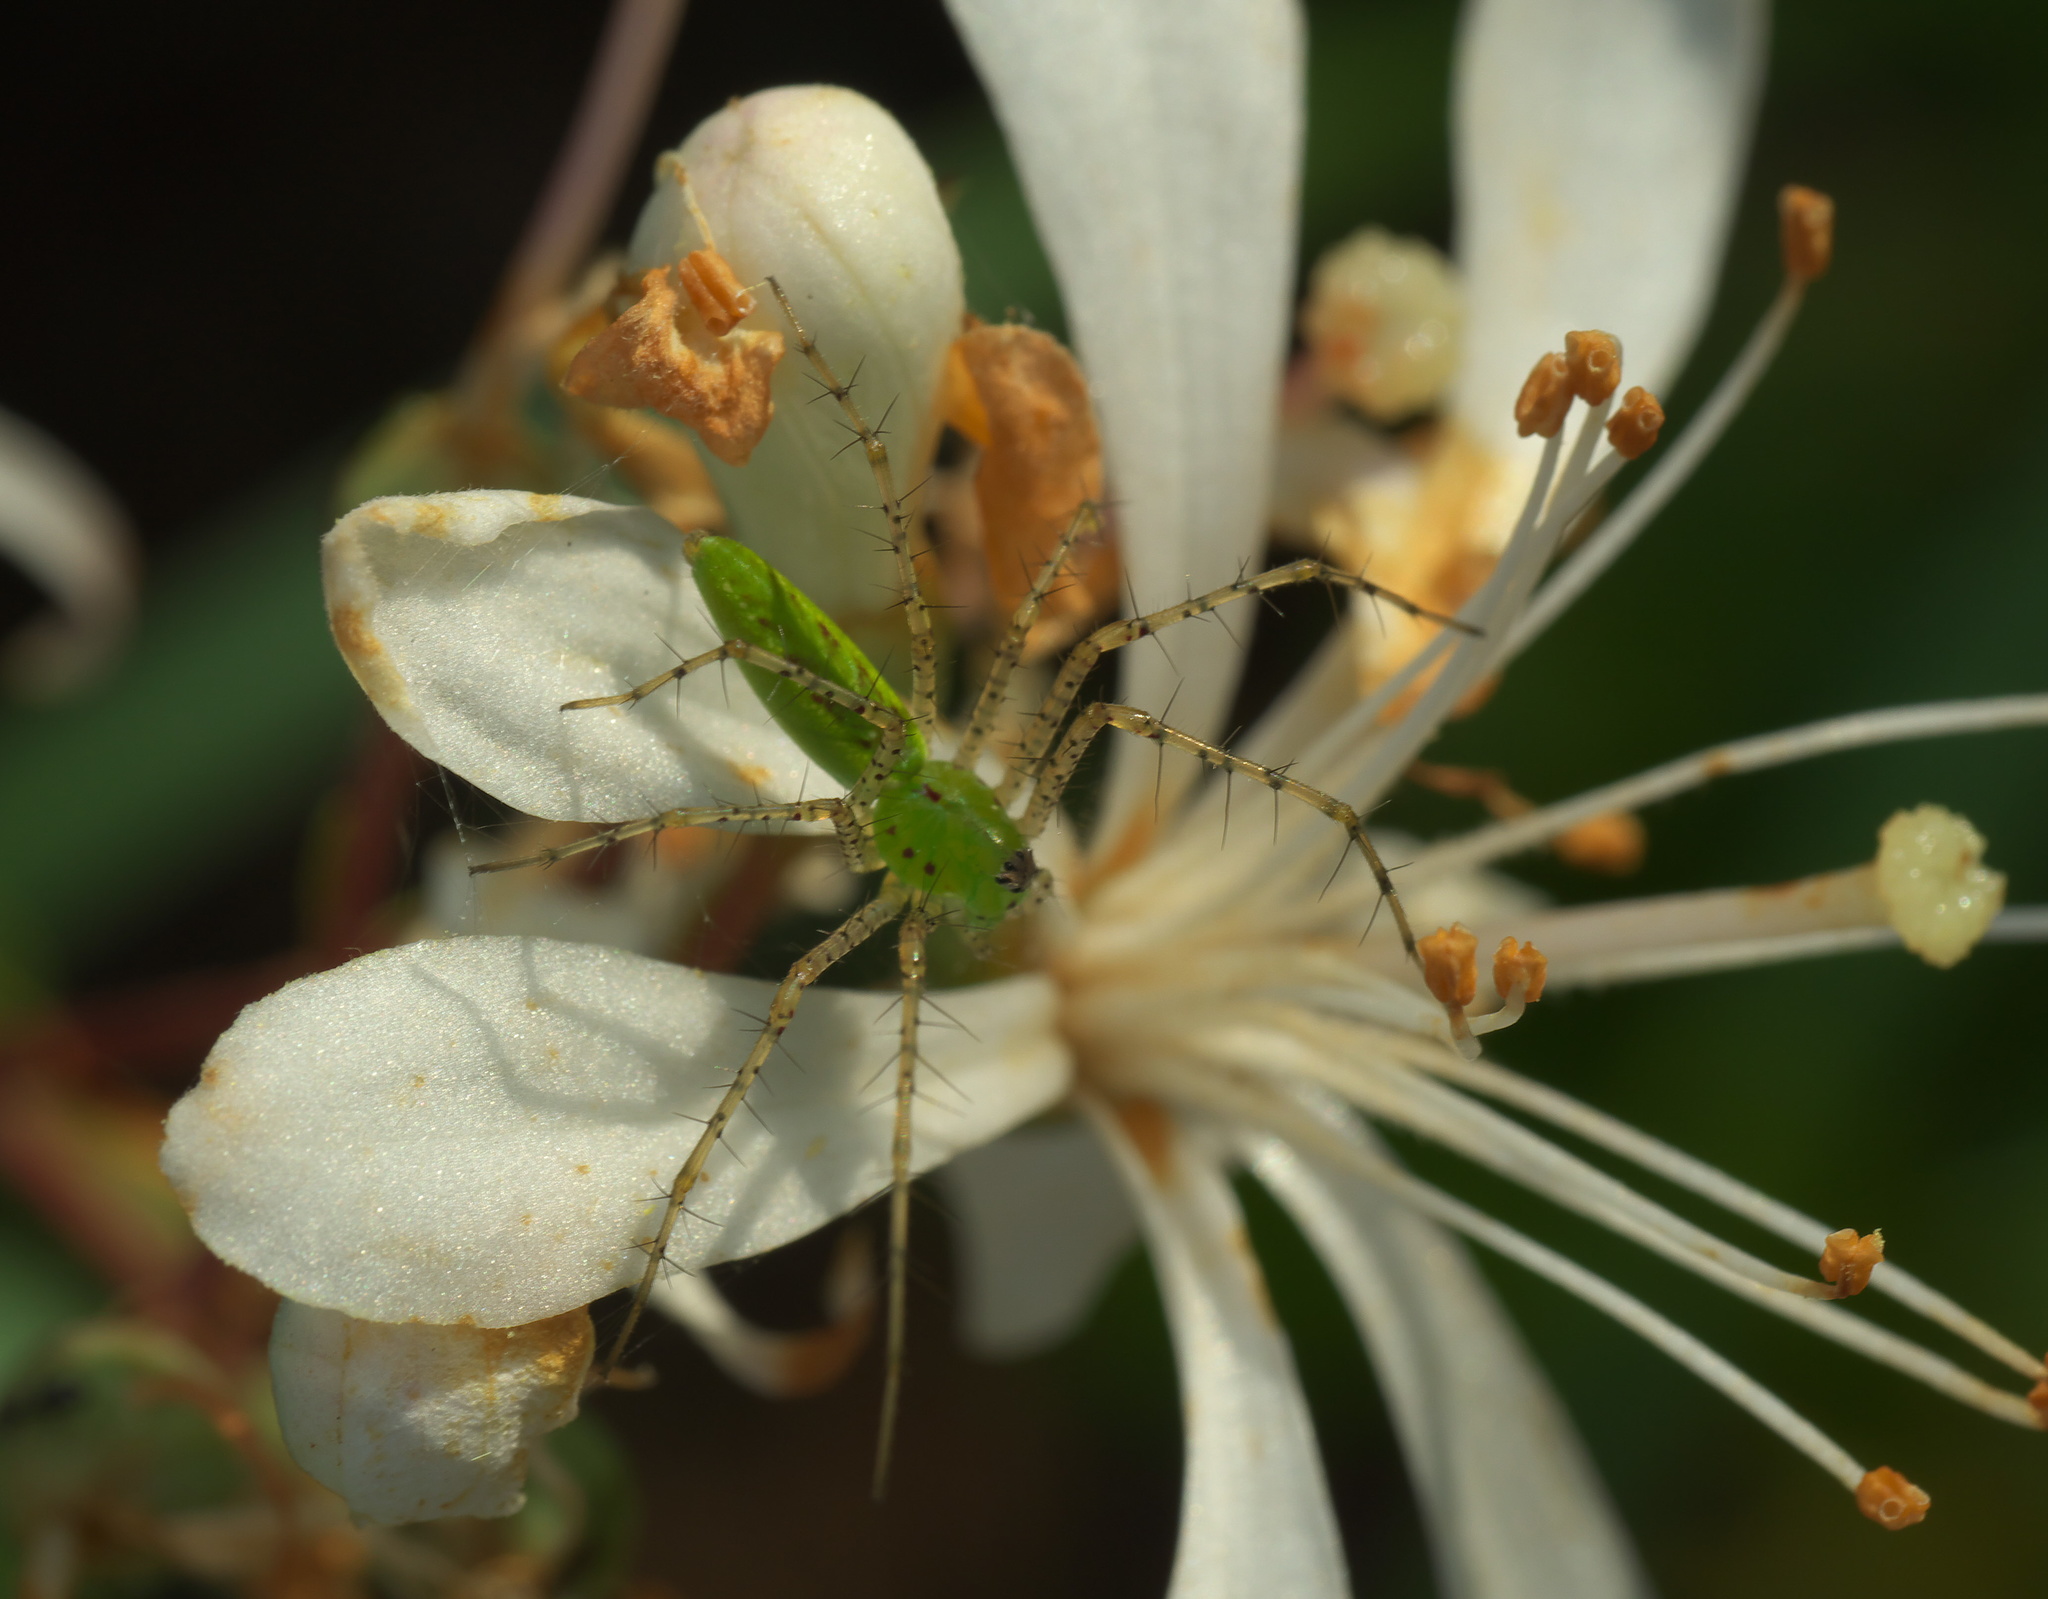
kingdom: Animalia
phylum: Arthropoda
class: Arachnida
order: Araneae
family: Oxyopidae
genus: Peucetia
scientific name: Peucetia viridans
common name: Lynx spiders
